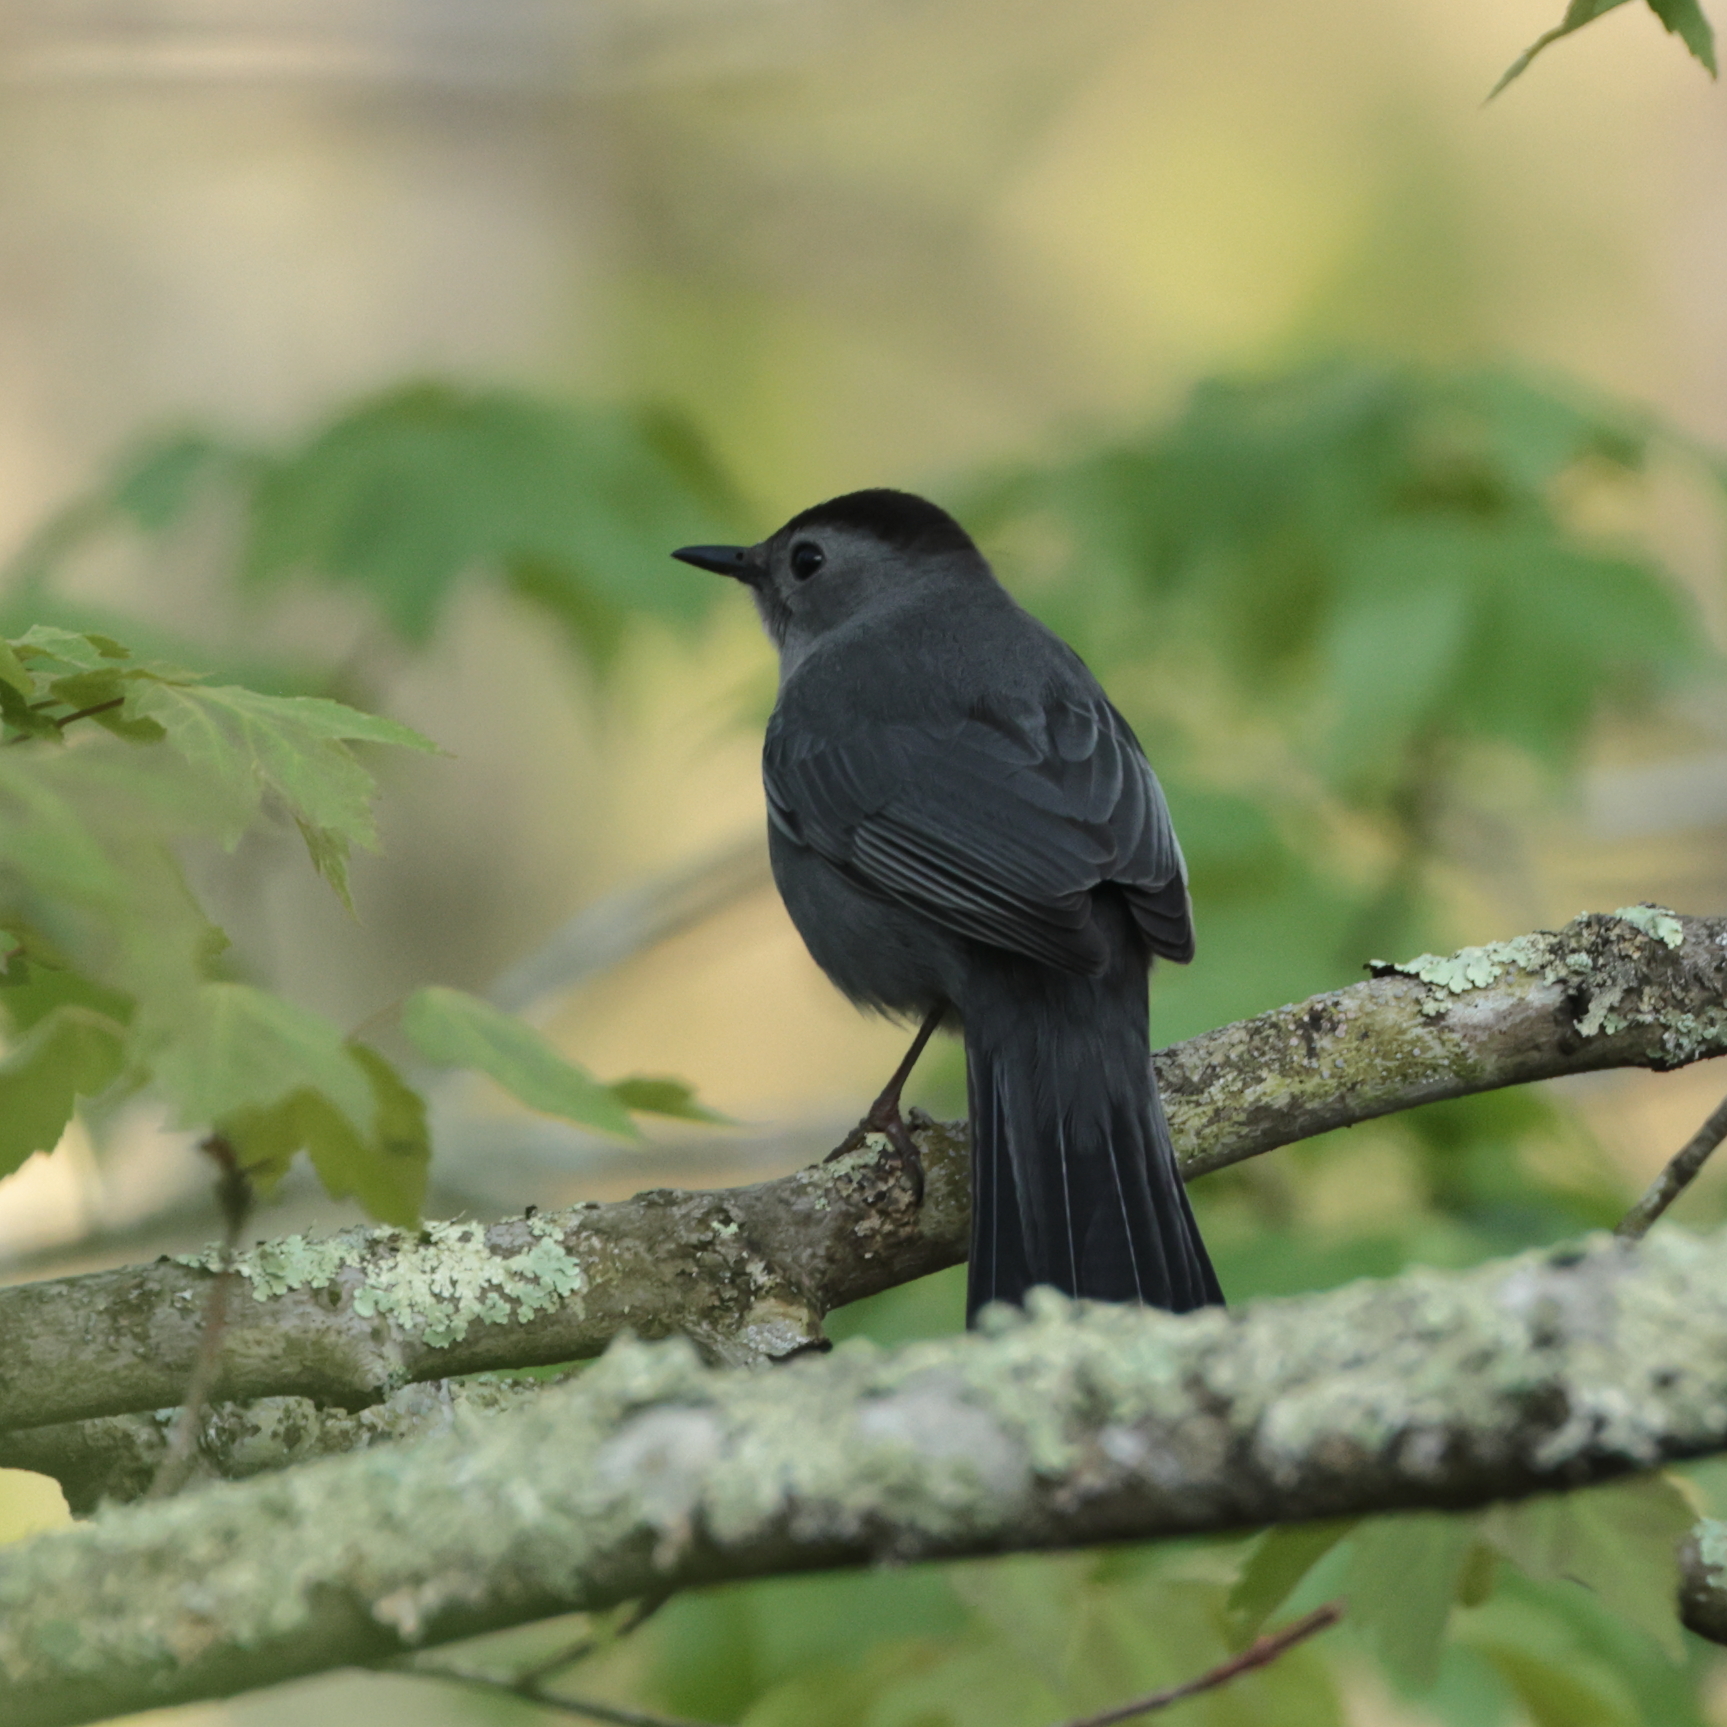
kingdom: Animalia
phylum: Chordata
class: Aves
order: Passeriformes
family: Mimidae
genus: Dumetella
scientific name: Dumetella carolinensis
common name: Gray catbird
